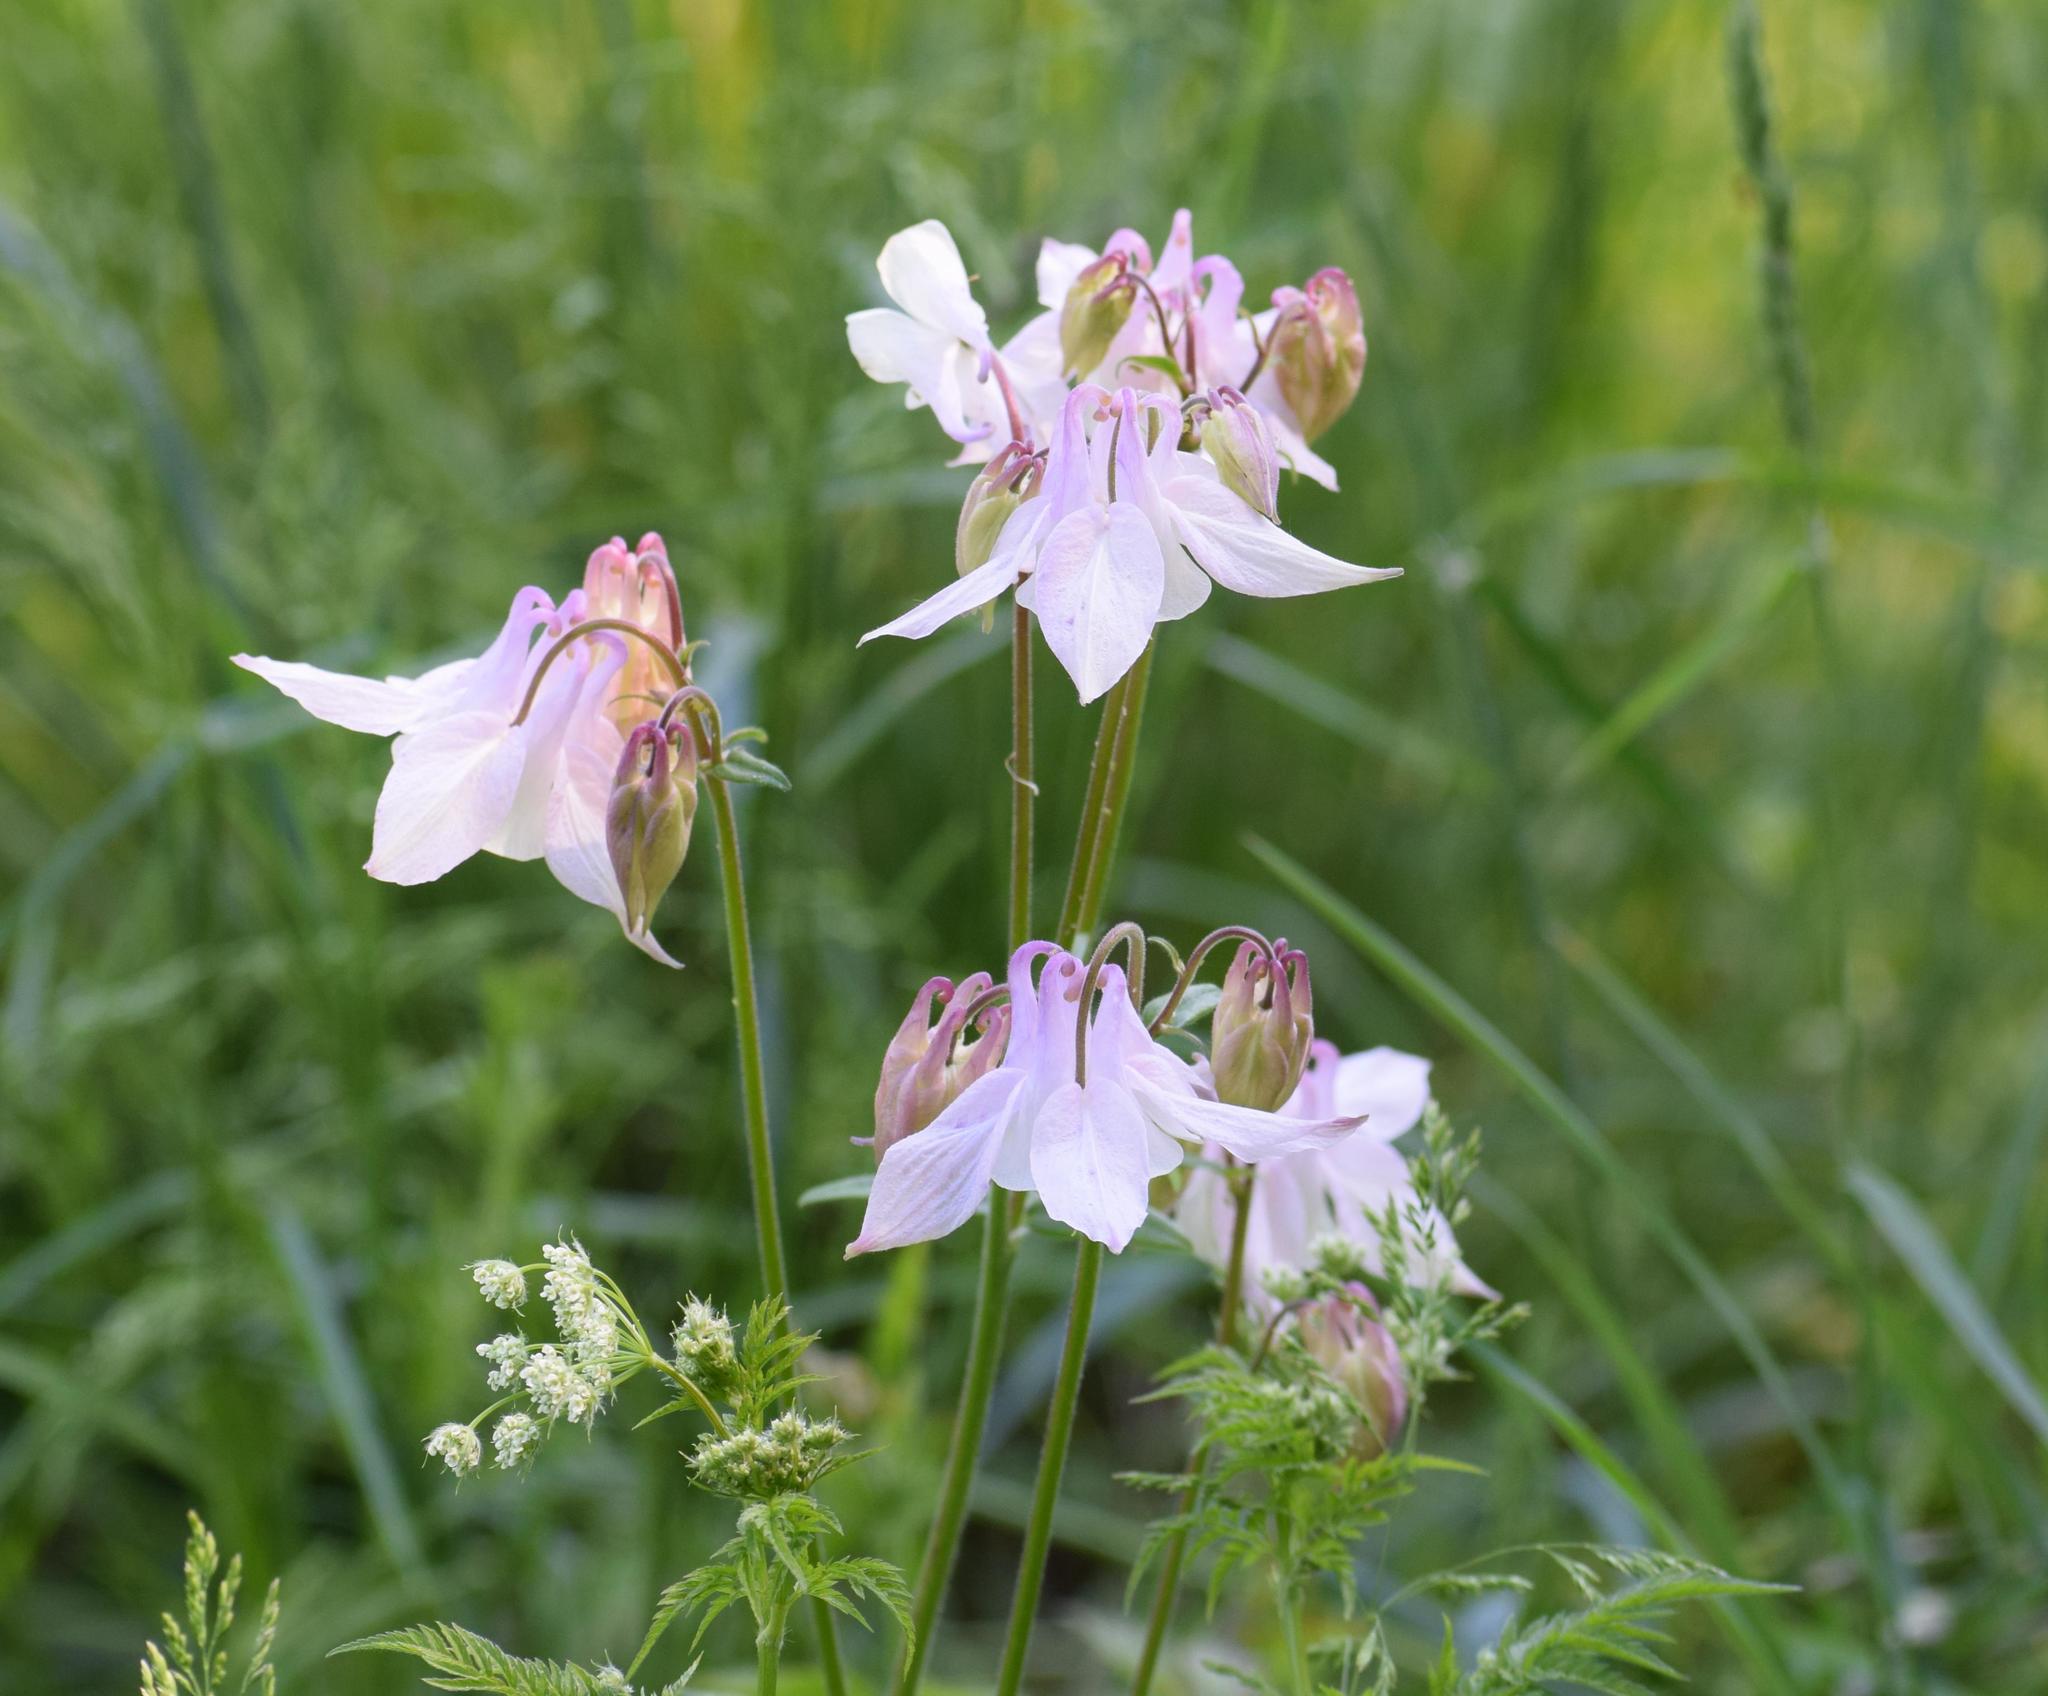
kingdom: Plantae
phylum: Tracheophyta
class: Magnoliopsida
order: Ranunculales
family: Ranunculaceae
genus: Aquilegia
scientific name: Aquilegia vulgaris
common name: Columbine
